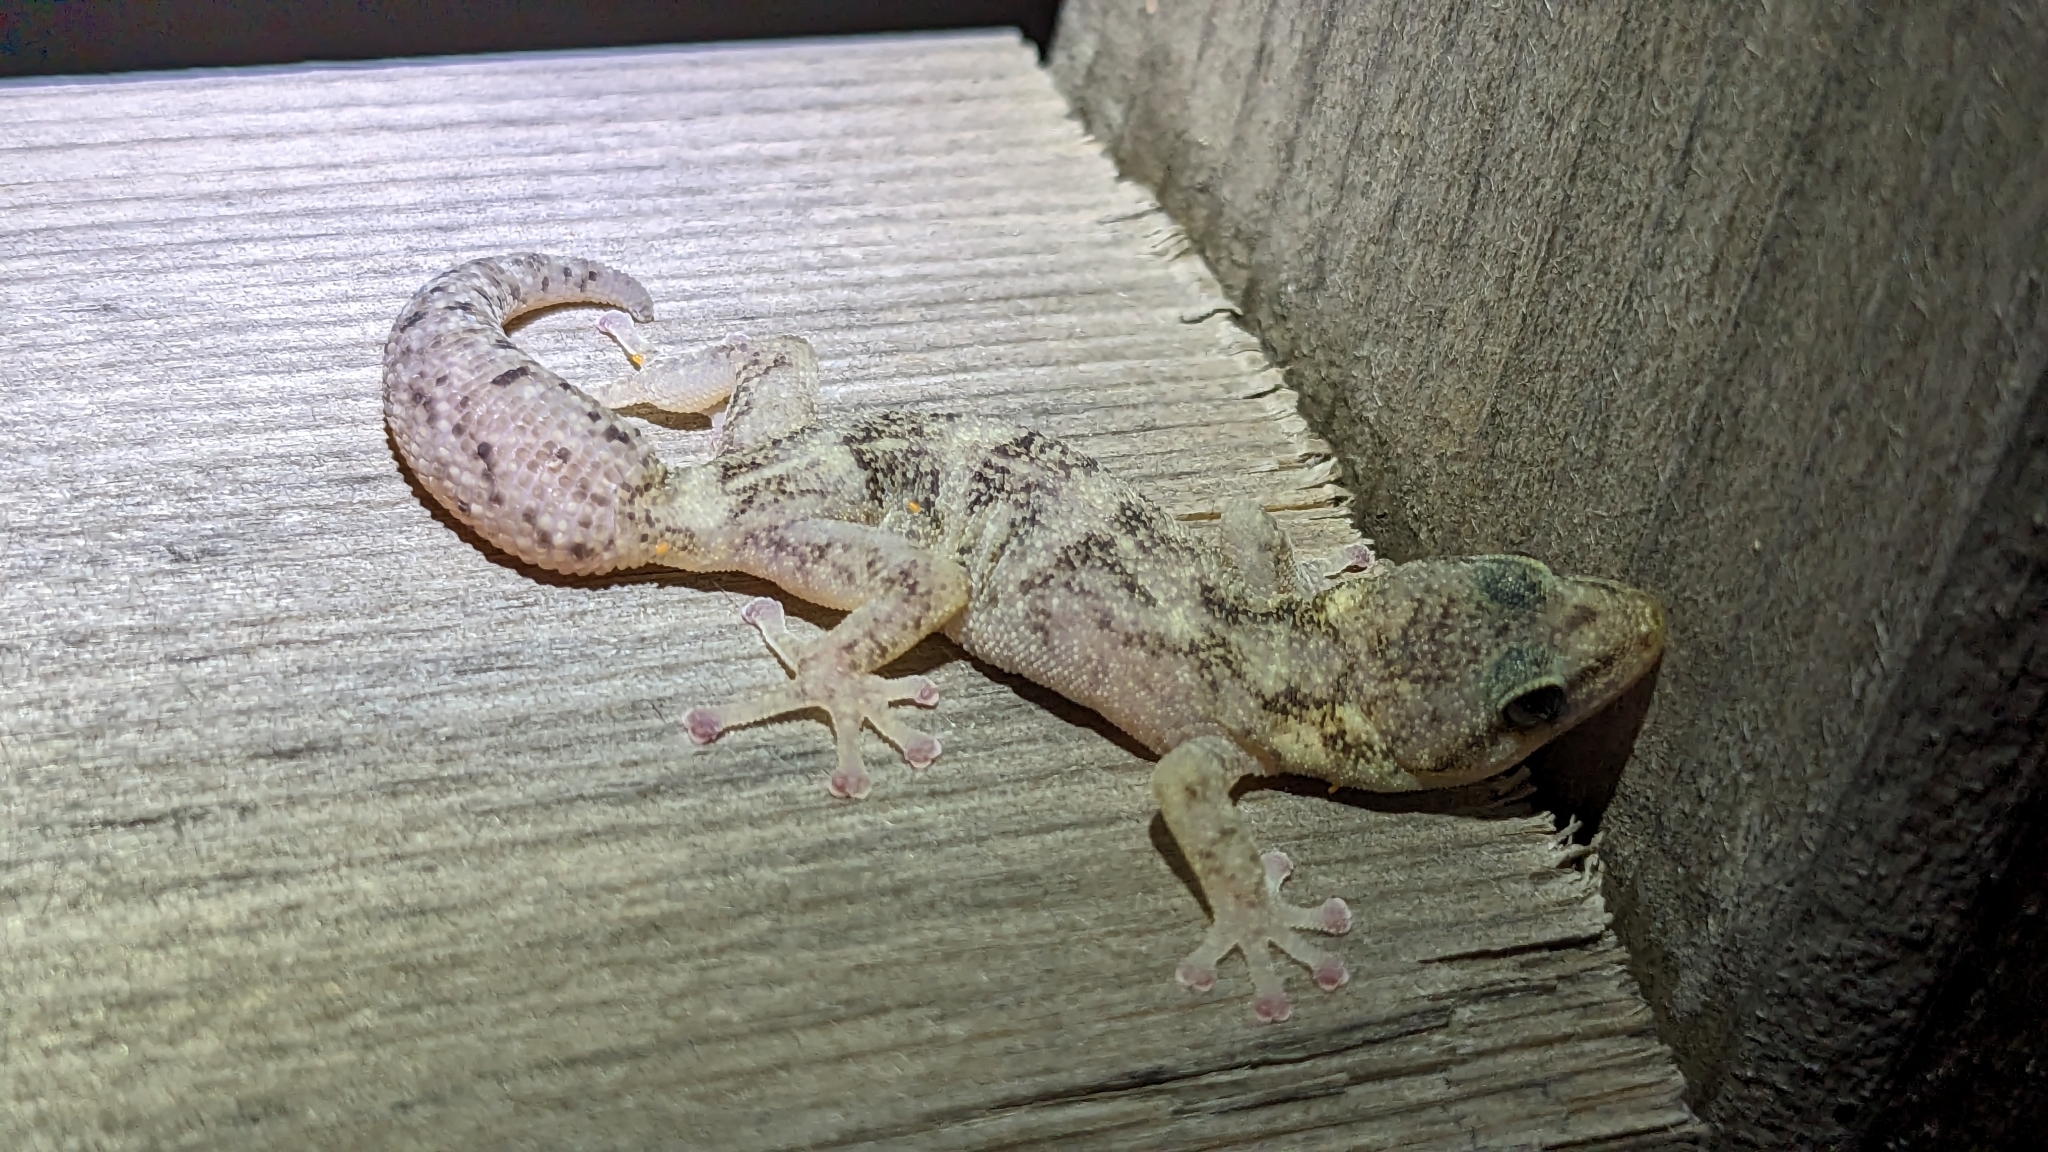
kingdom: Animalia
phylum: Chordata
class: Squamata
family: Sphaerodactylidae
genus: Euleptes
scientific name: Euleptes europaea
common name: English common name not available
